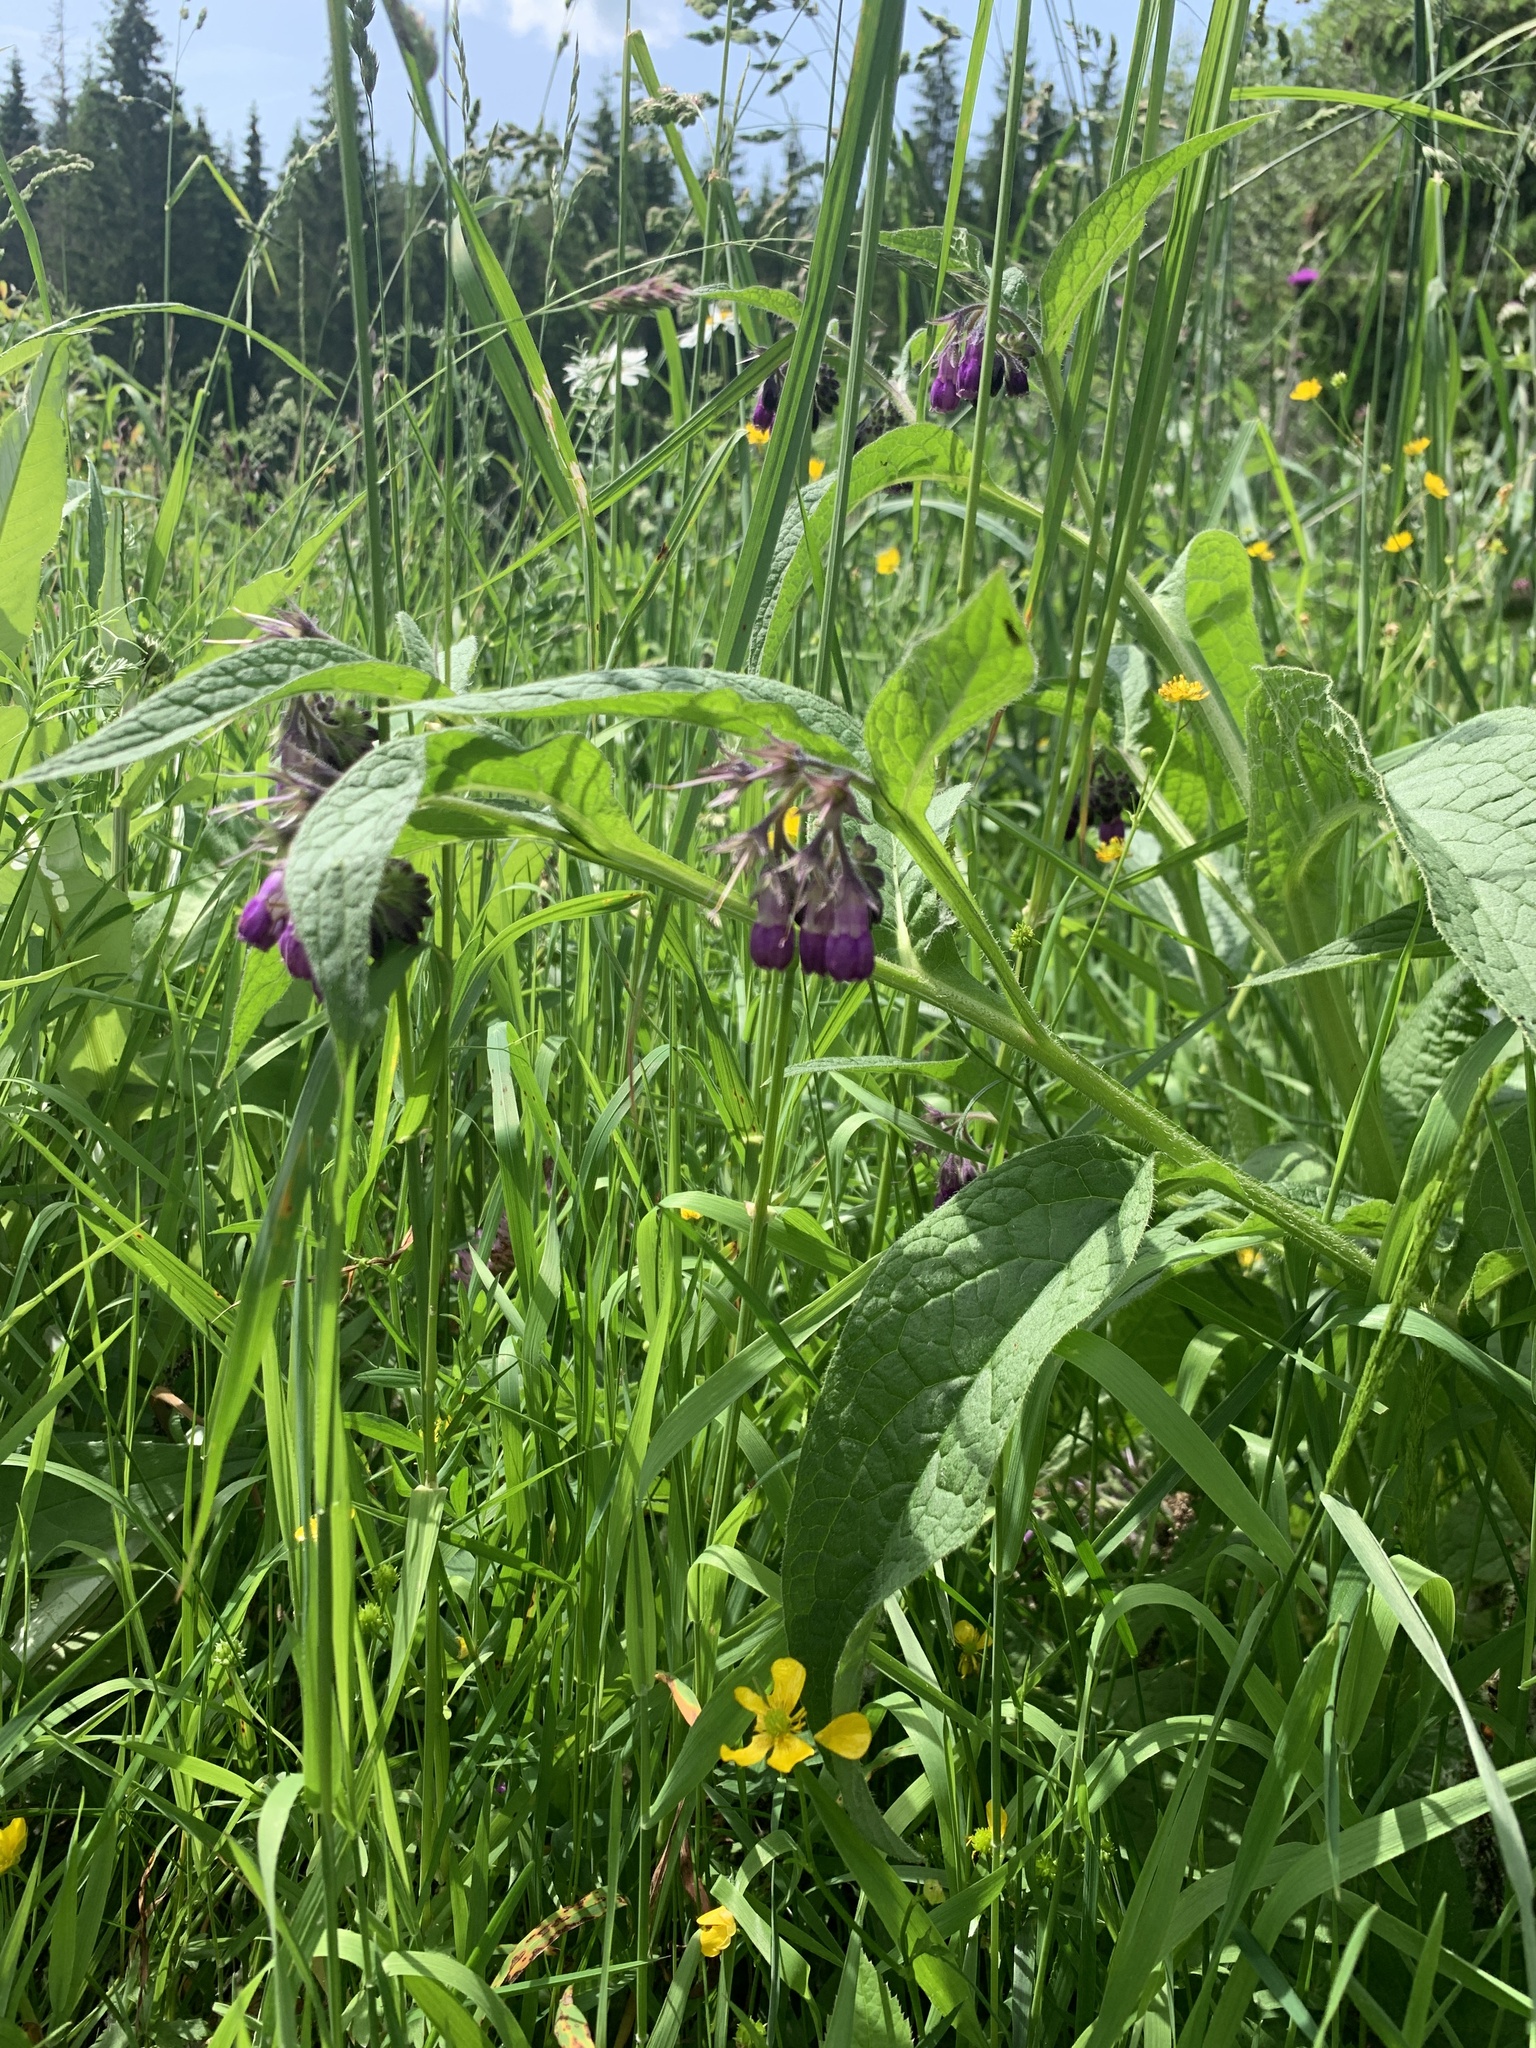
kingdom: Plantae
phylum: Tracheophyta
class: Magnoliopsida
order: Boraginales
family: Boraginaceae
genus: Symphytum
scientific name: Symphytum officinale
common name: Common comfrey
